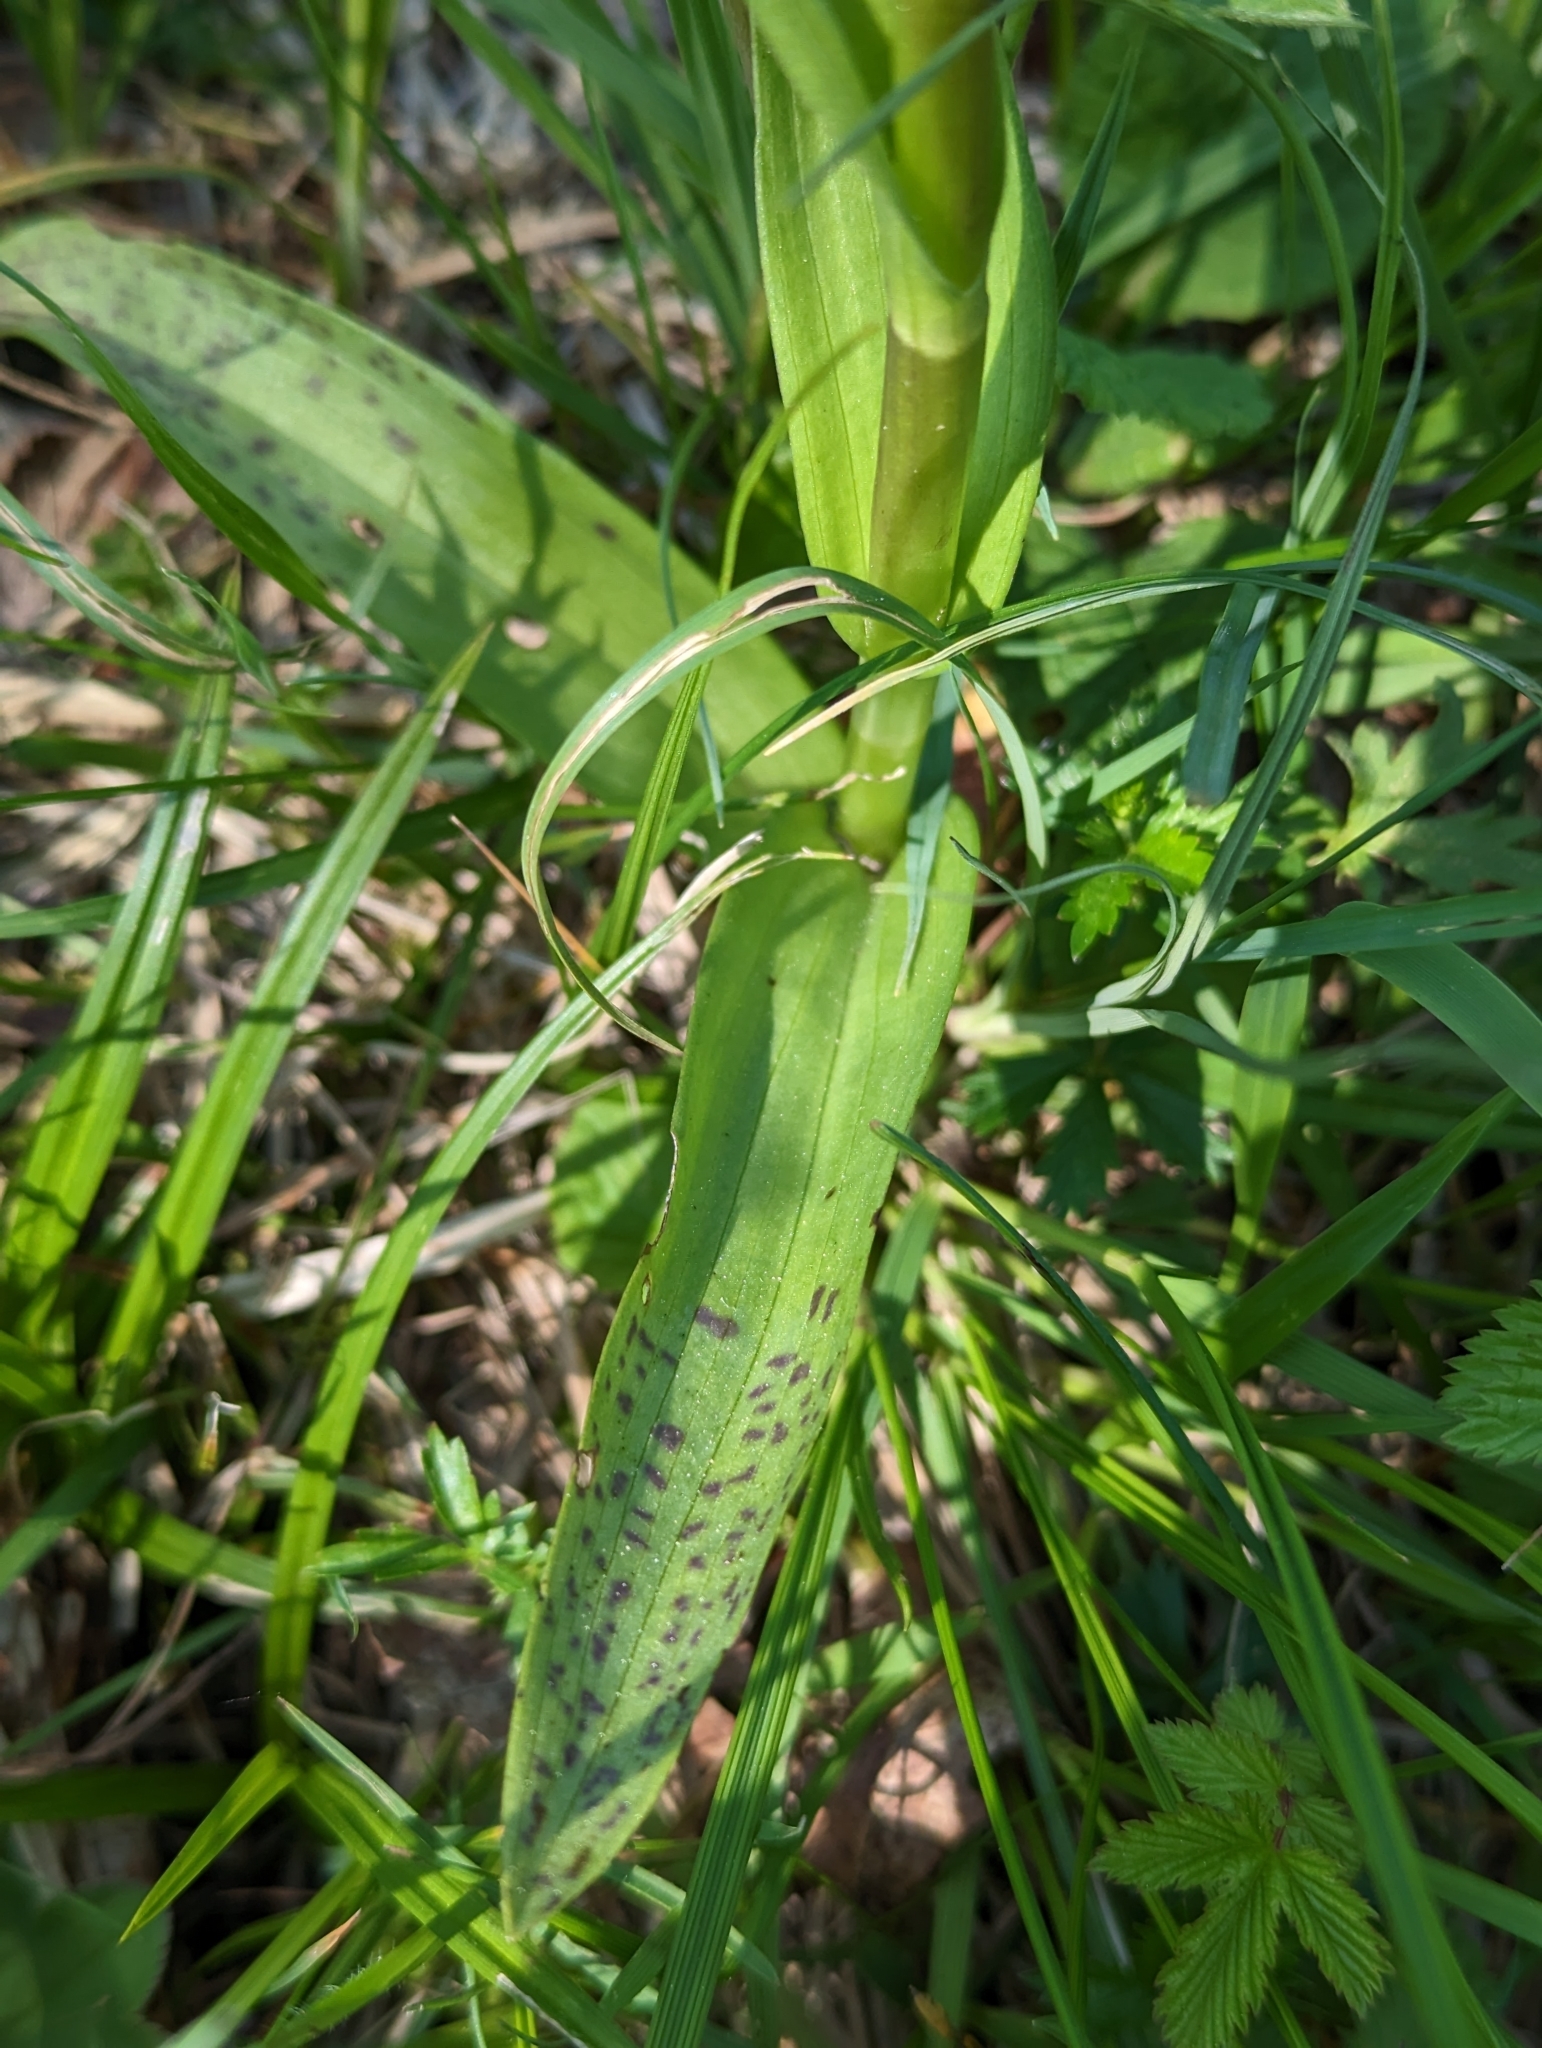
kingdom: Plantae
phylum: Tracheophyta
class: Liliopsida
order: Asparagales
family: Orchidaceae
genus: Dactylorhiza
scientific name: Dactylorhiza majalis
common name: Marsh orchid
